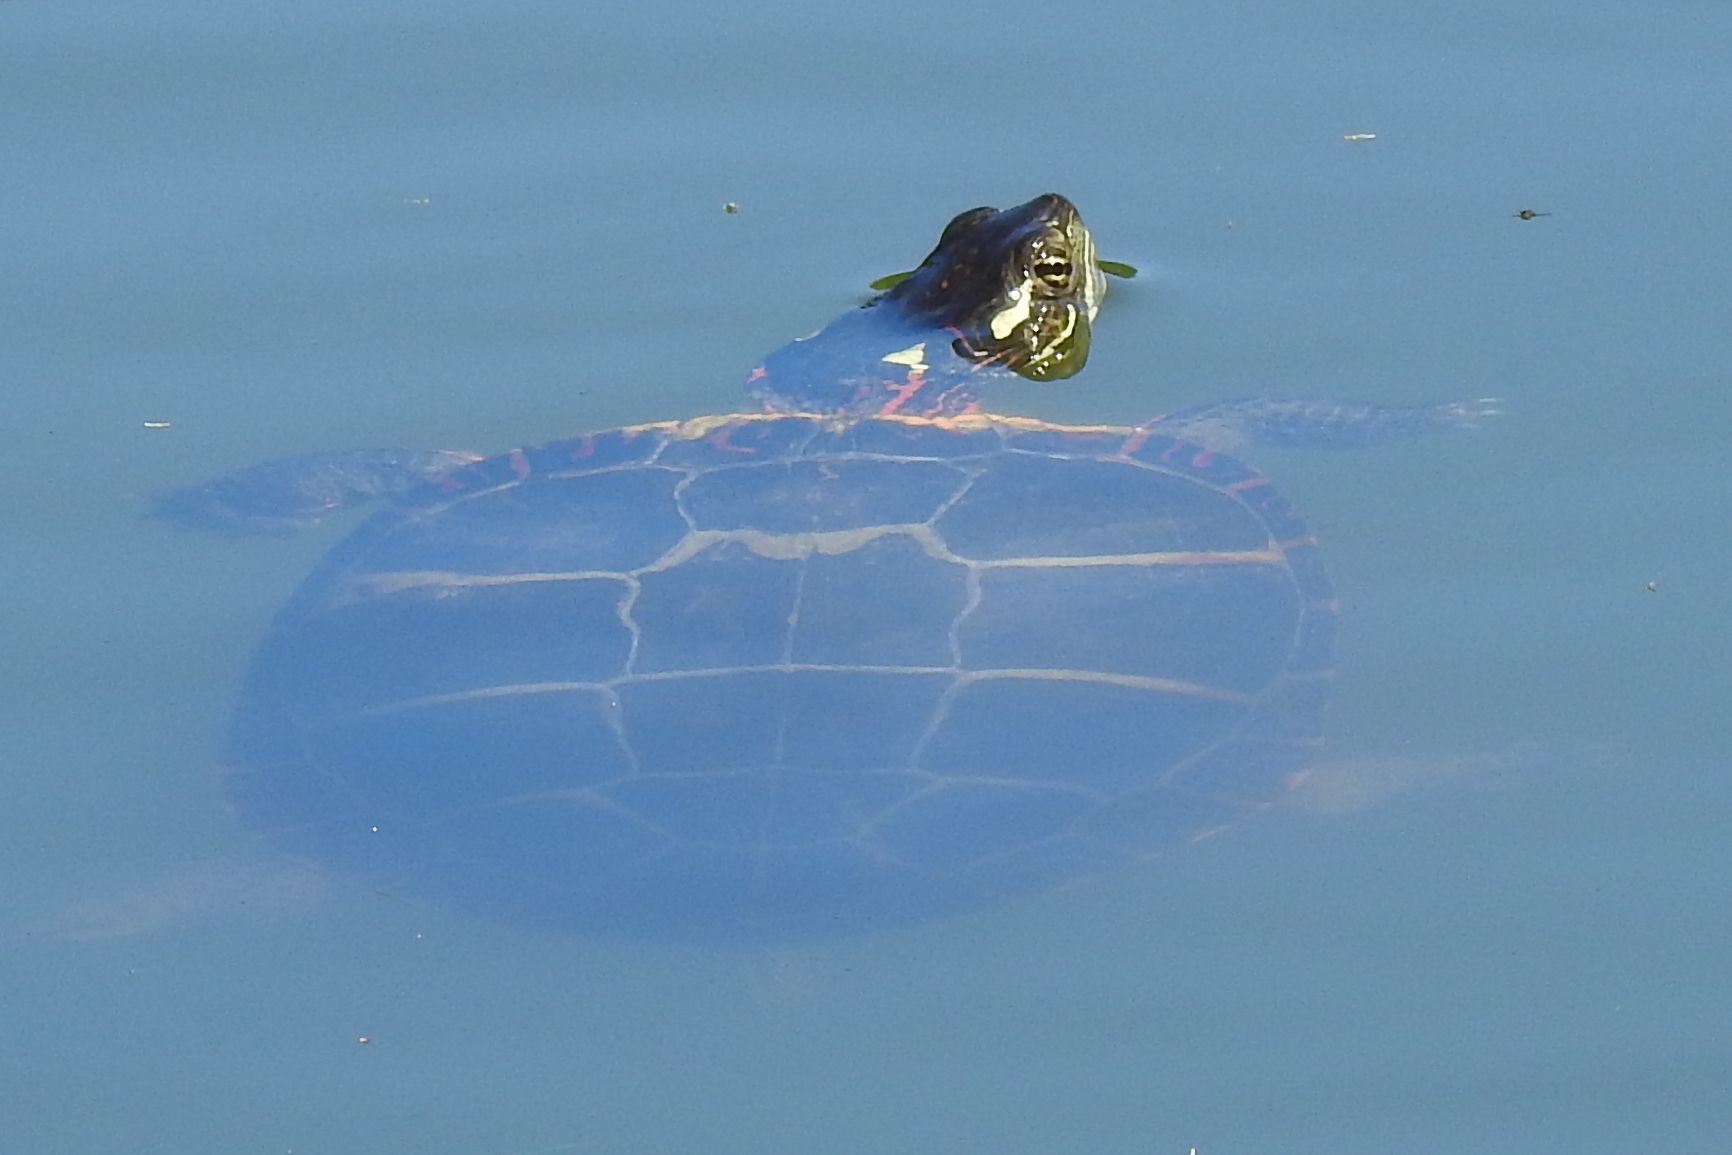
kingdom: Animalia
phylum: Chordata
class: Testudines
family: Emydidae
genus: Chrysemys
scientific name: Chrysemys picta
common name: Painted turtle
